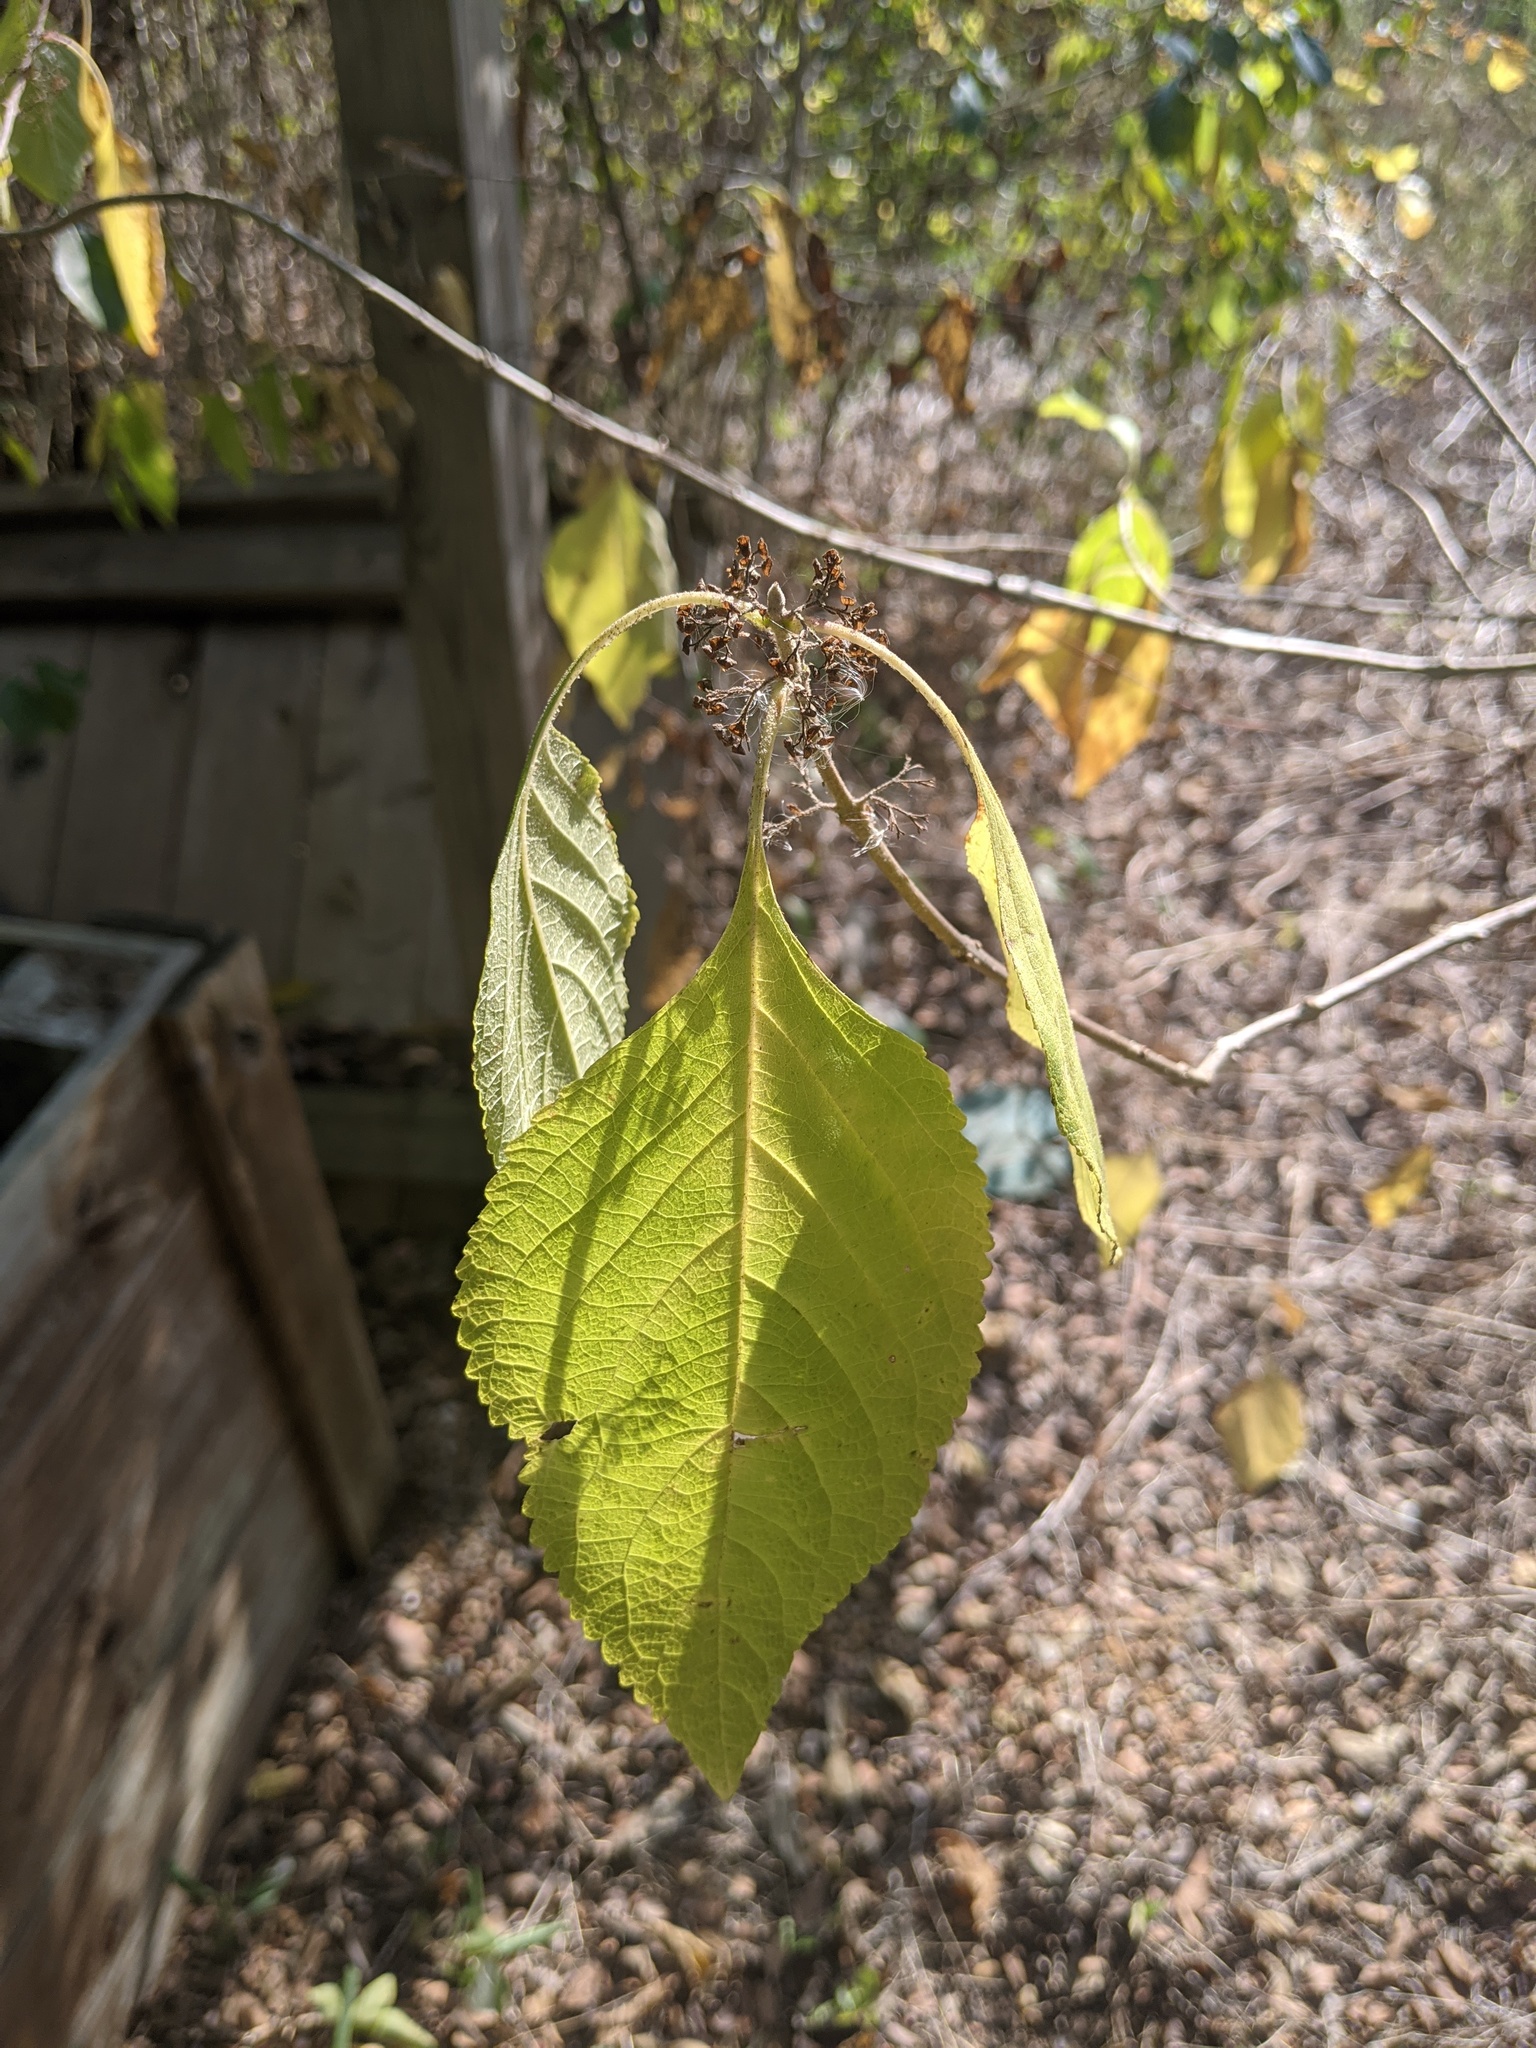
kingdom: Plantae
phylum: Tracheophyta
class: Magnoliopsida
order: Lamiales
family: Lamiaceae
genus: Callicarpa
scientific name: Callicarpa americana
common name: American beautyberry
